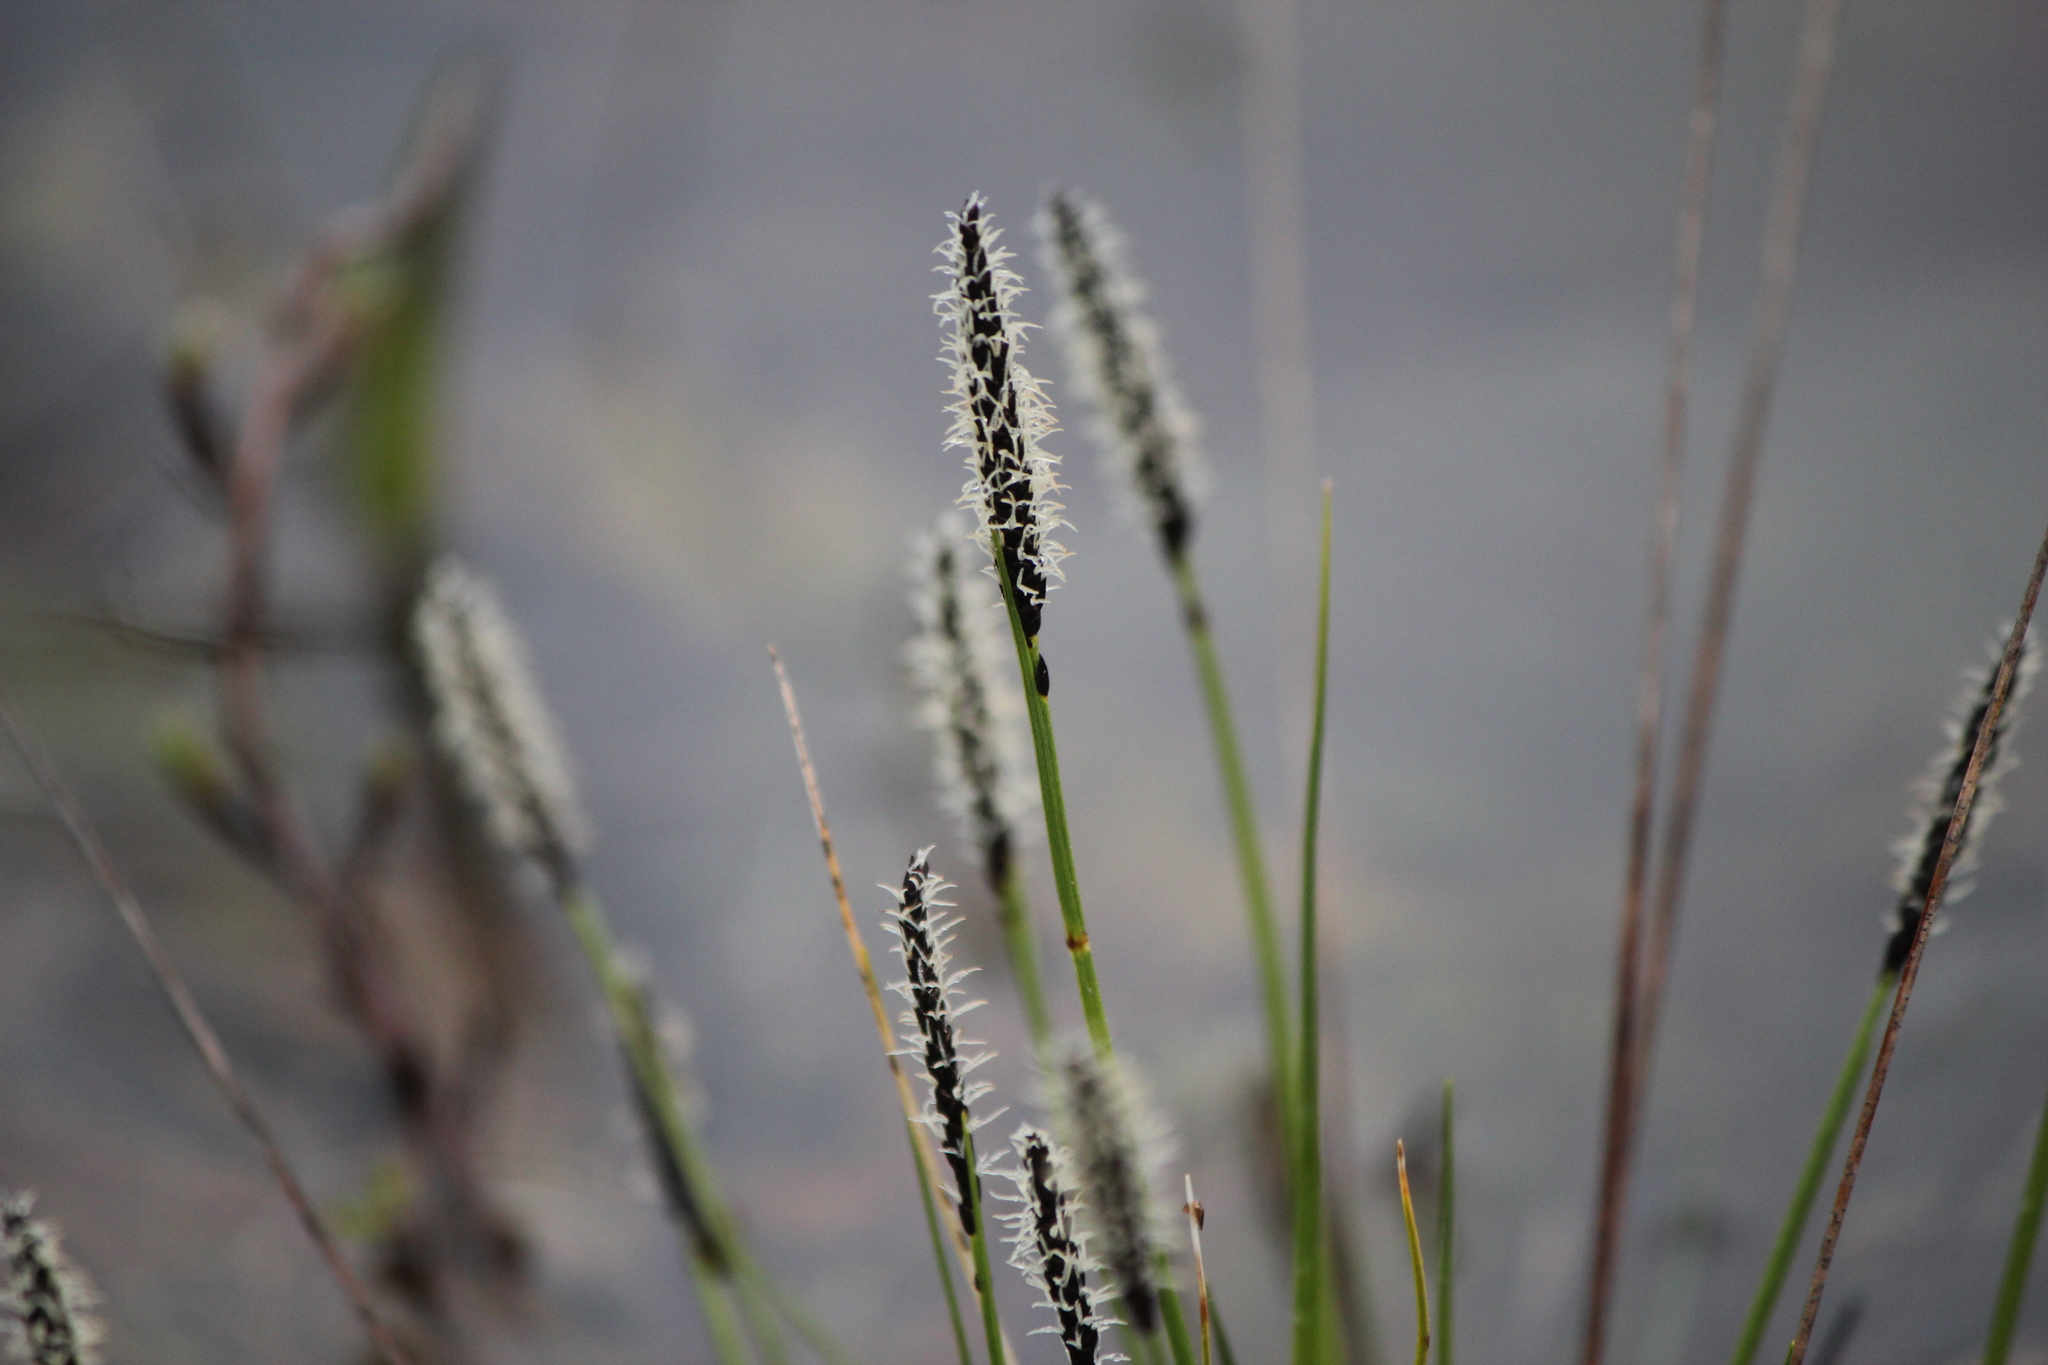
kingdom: Plantae
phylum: Tracheophyta
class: Liliopsida
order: Poales
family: Cyperaceae
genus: Carex
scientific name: Carex scirpoidea
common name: Canada single-spike sedge
